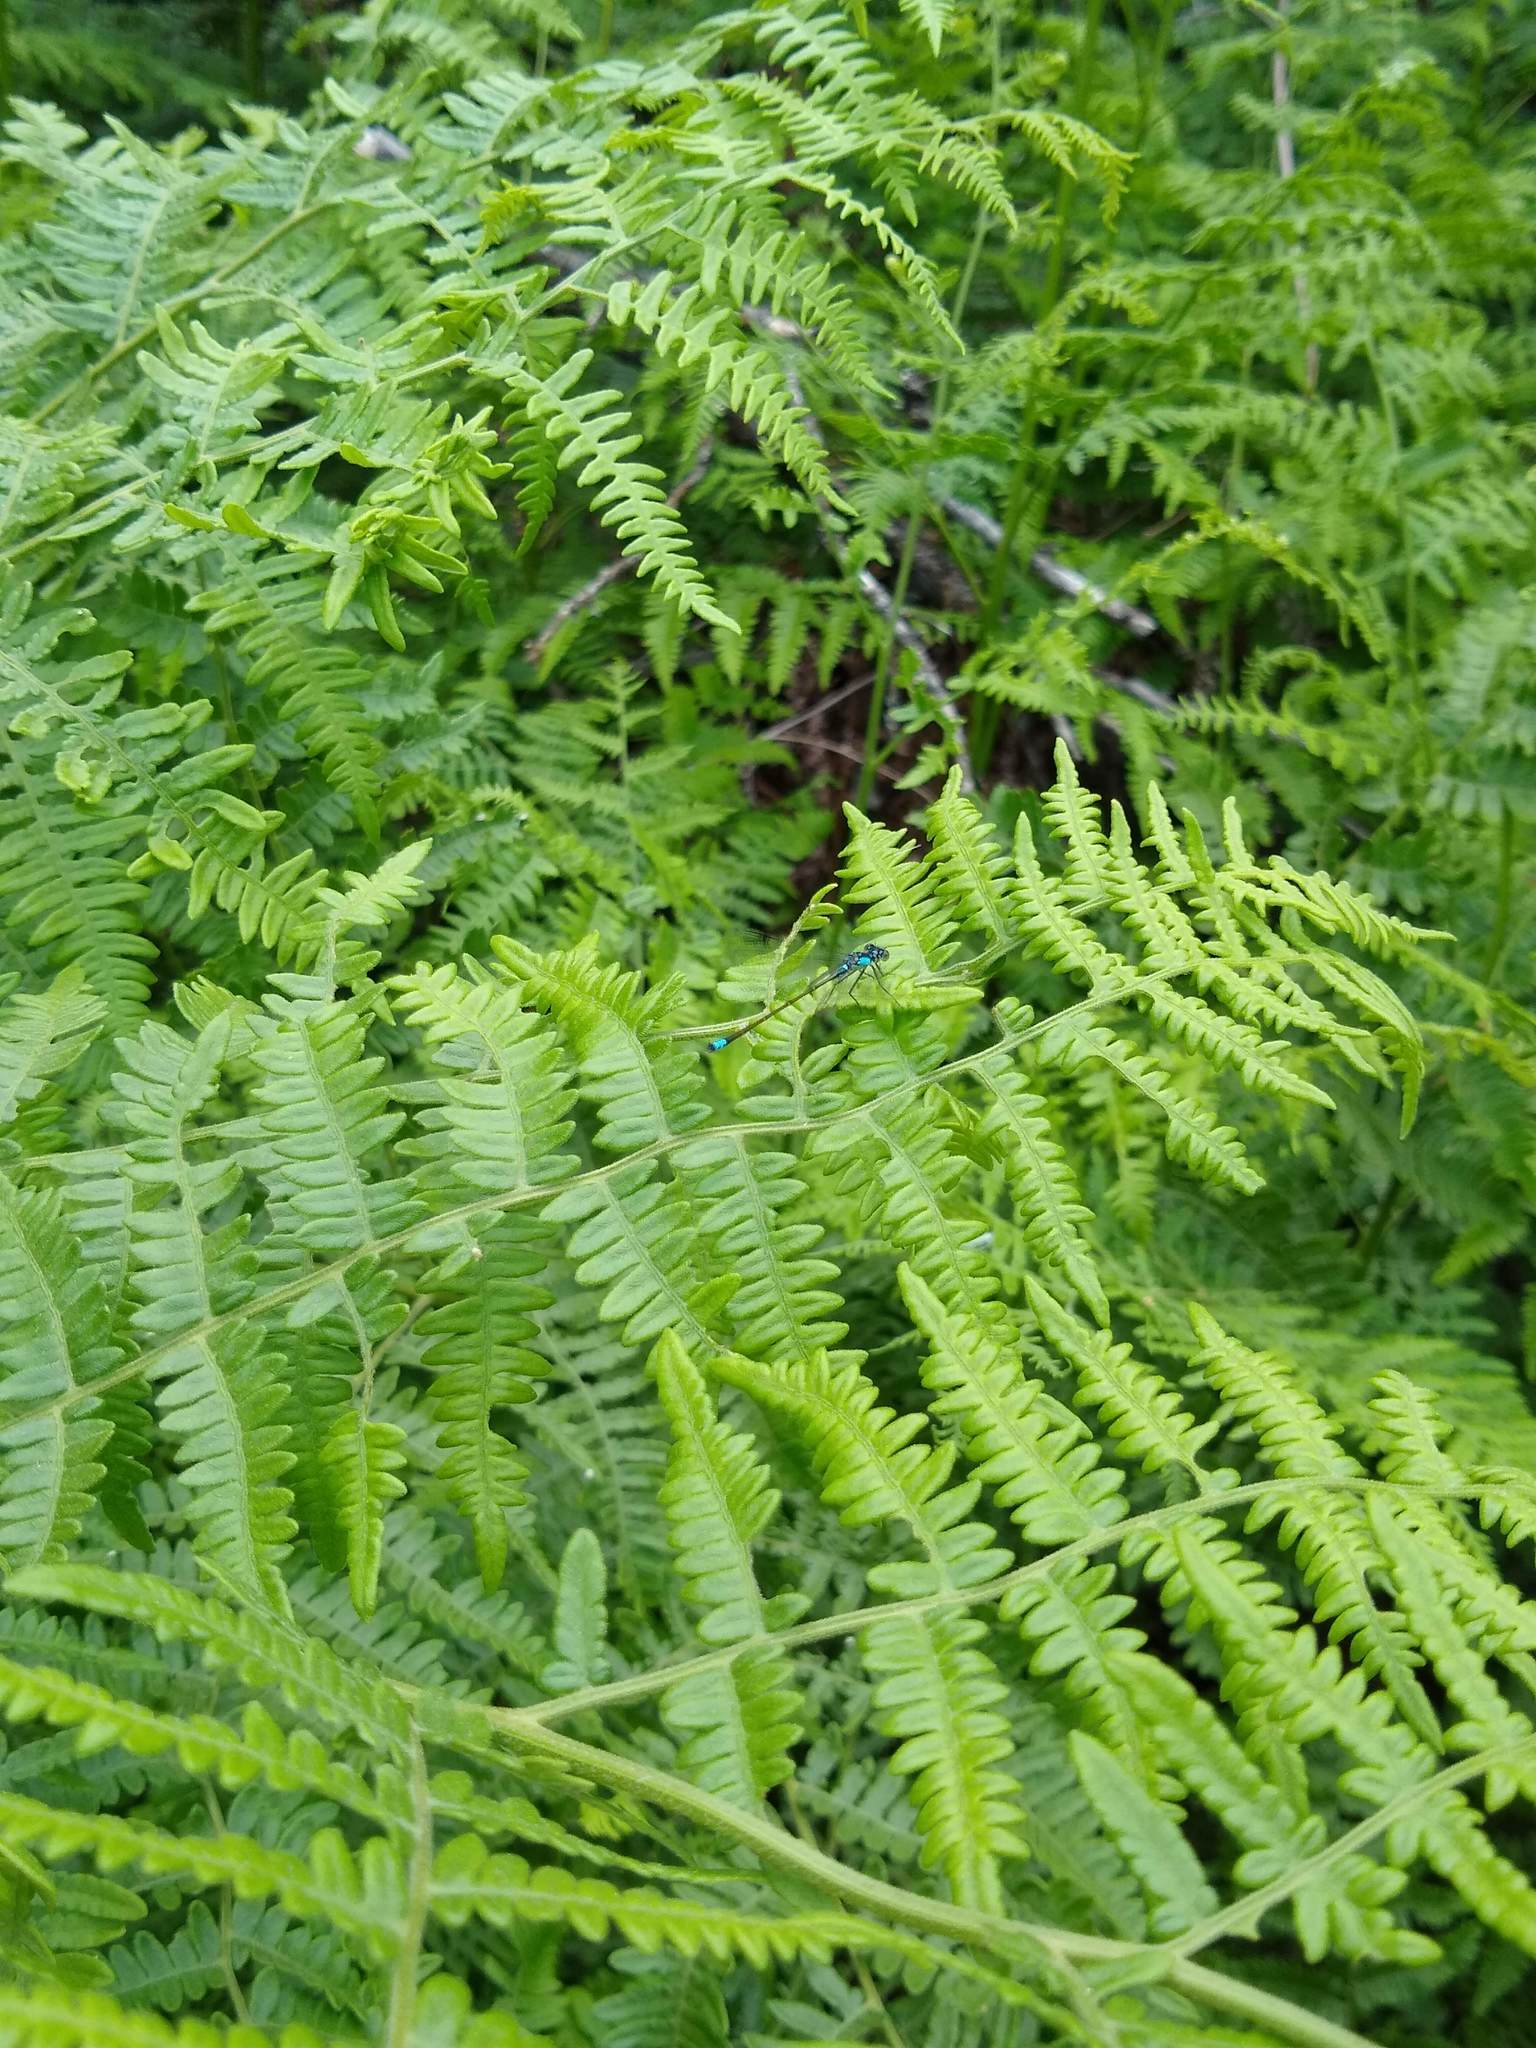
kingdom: Animalia
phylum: Arthropoda
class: Insecta
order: Odonata
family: Coenagrionidae
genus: Ischnura
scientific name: Ischnura cervula
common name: Pacific forktail
